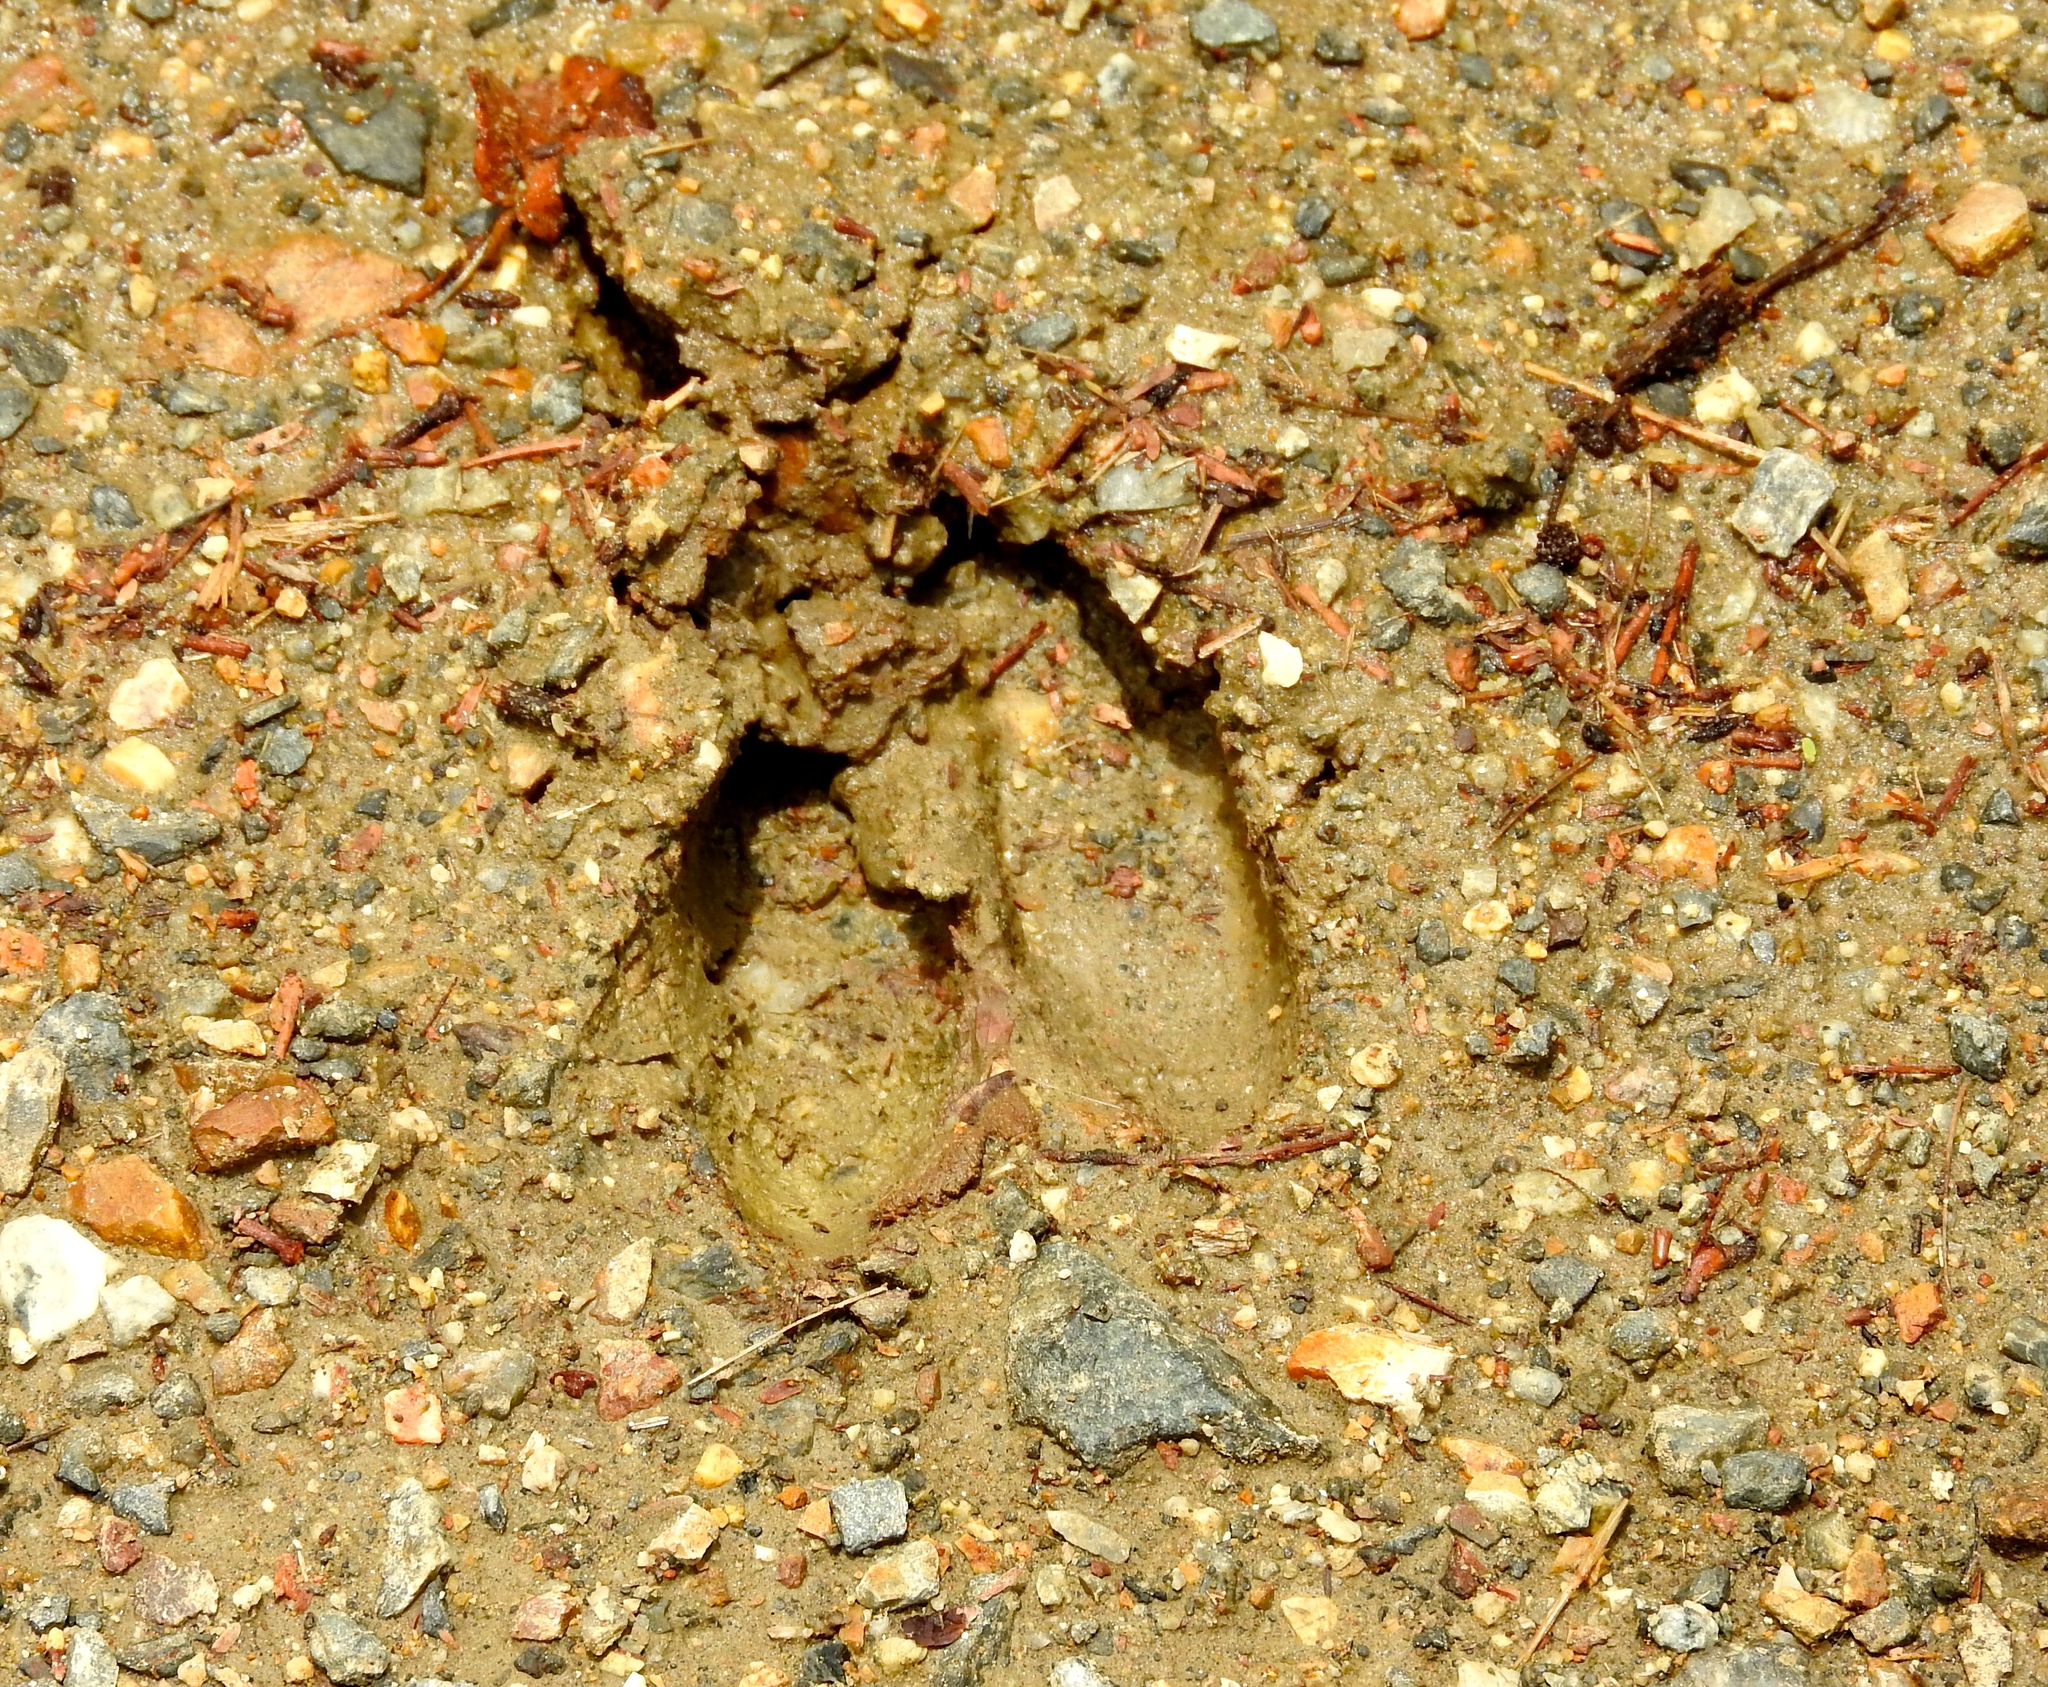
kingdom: Animalia
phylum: Chordata
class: Mammalia
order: Artiodactyla
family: Cervidae
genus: Odocoileus
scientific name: Odocoileus virginianus
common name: White-tailed deer
